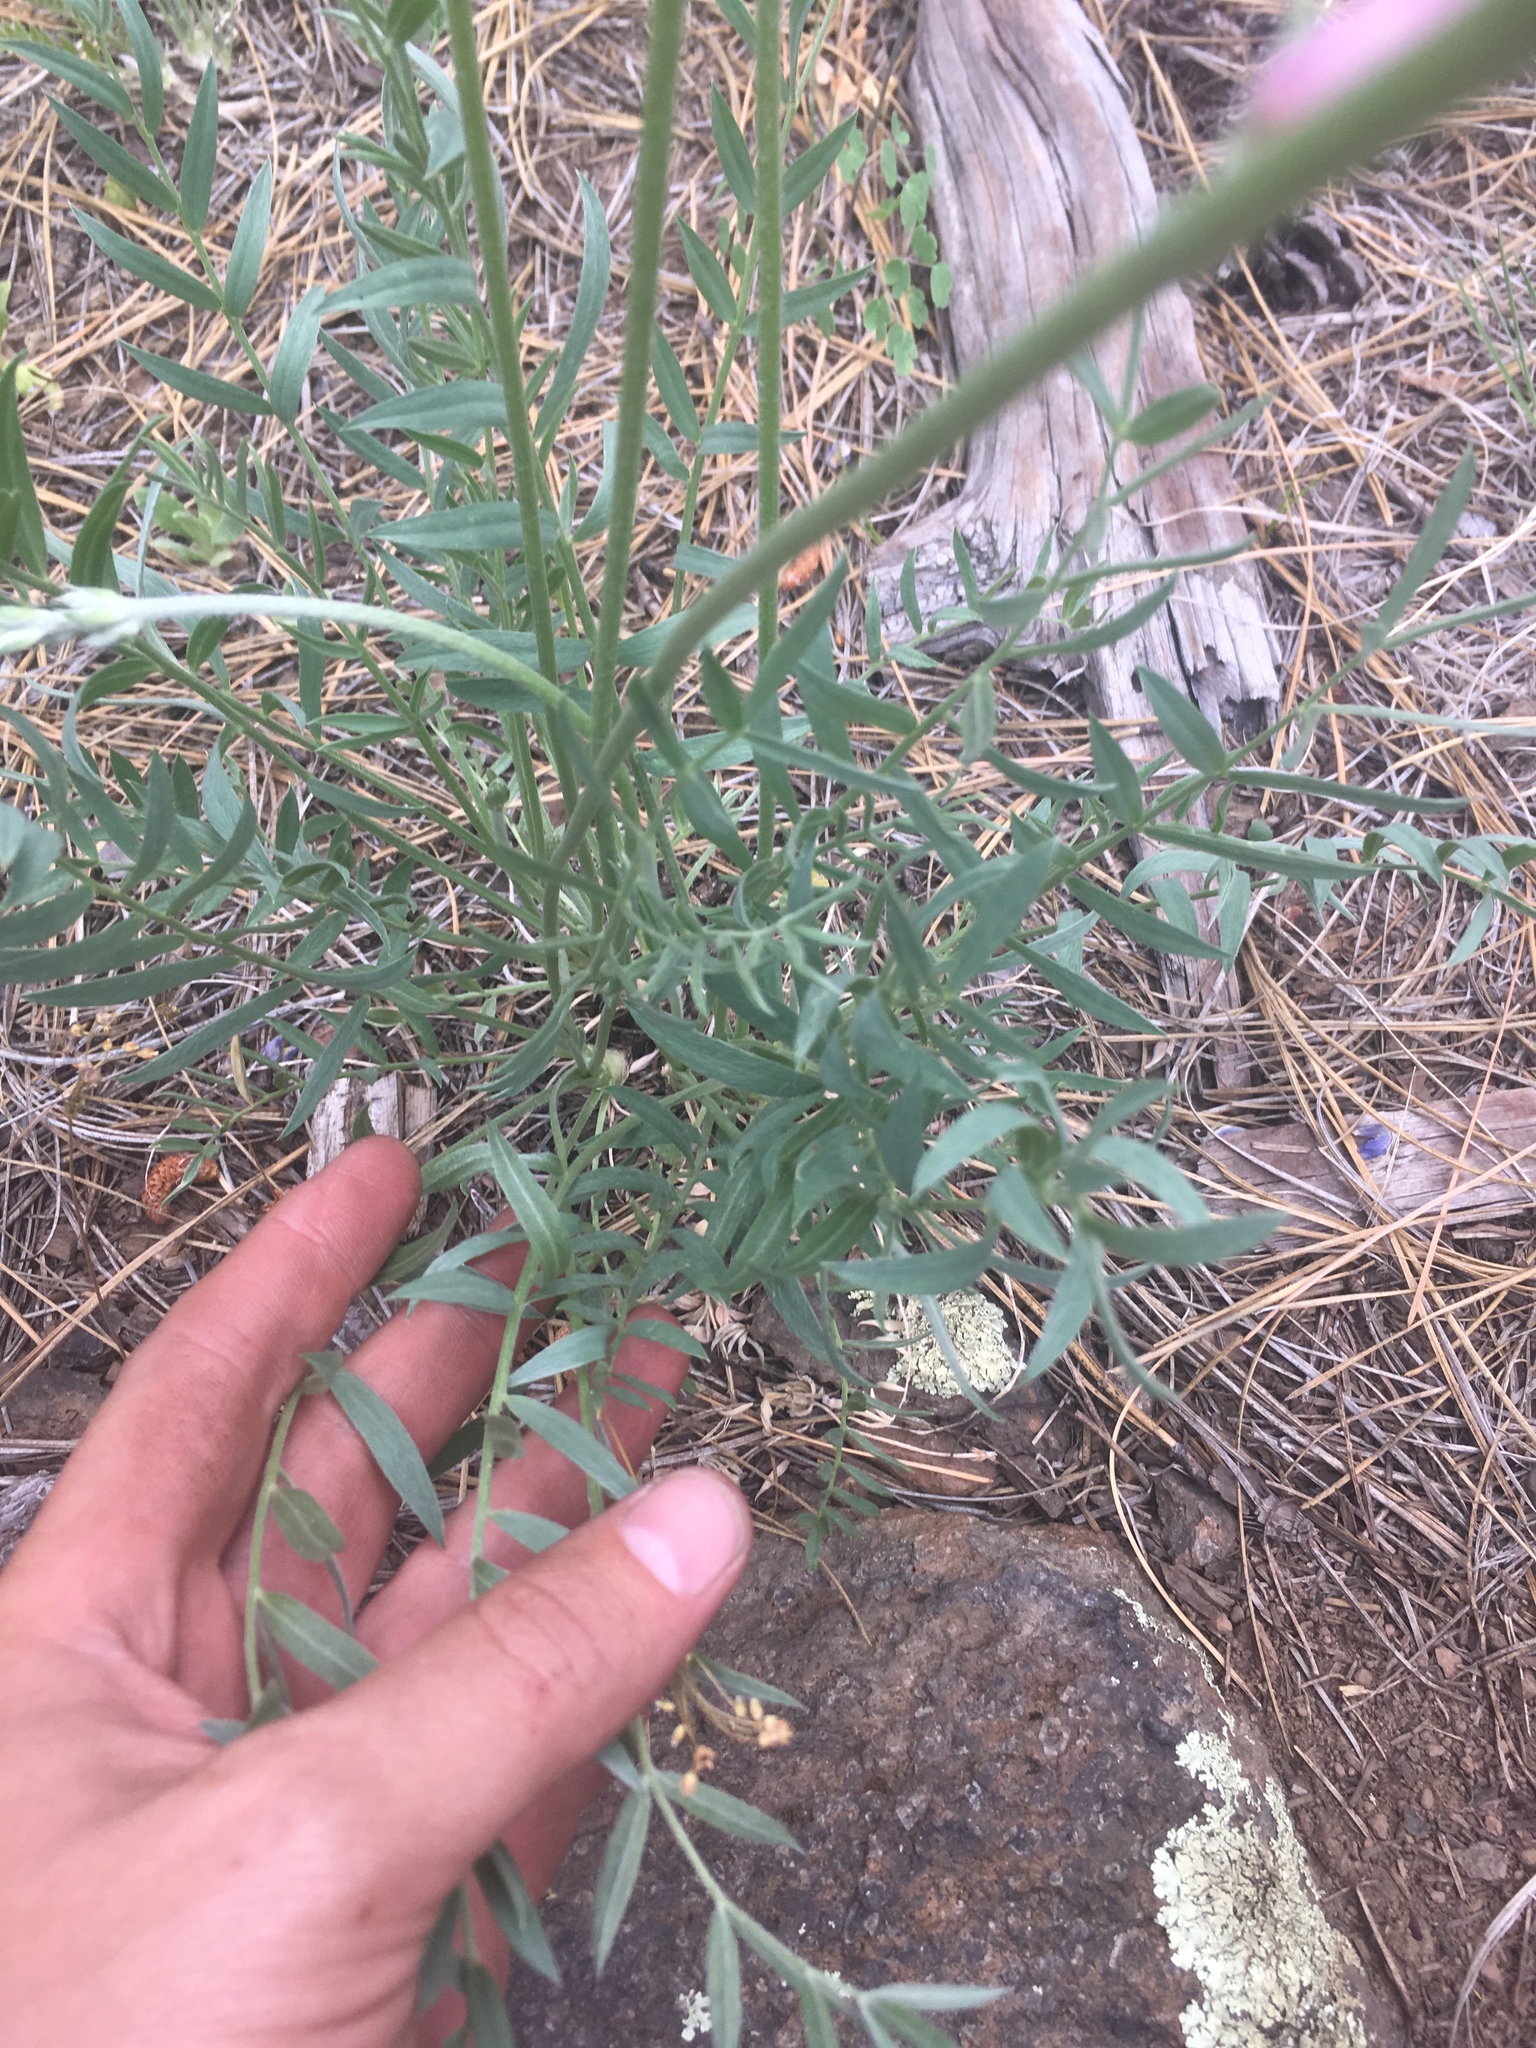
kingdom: Plantae
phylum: Tracheophyta
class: Magnoliopsida
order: Fabales
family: Fabaceae
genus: Oxytropis
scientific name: Oxytropis lambertii
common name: Purple locoweed
